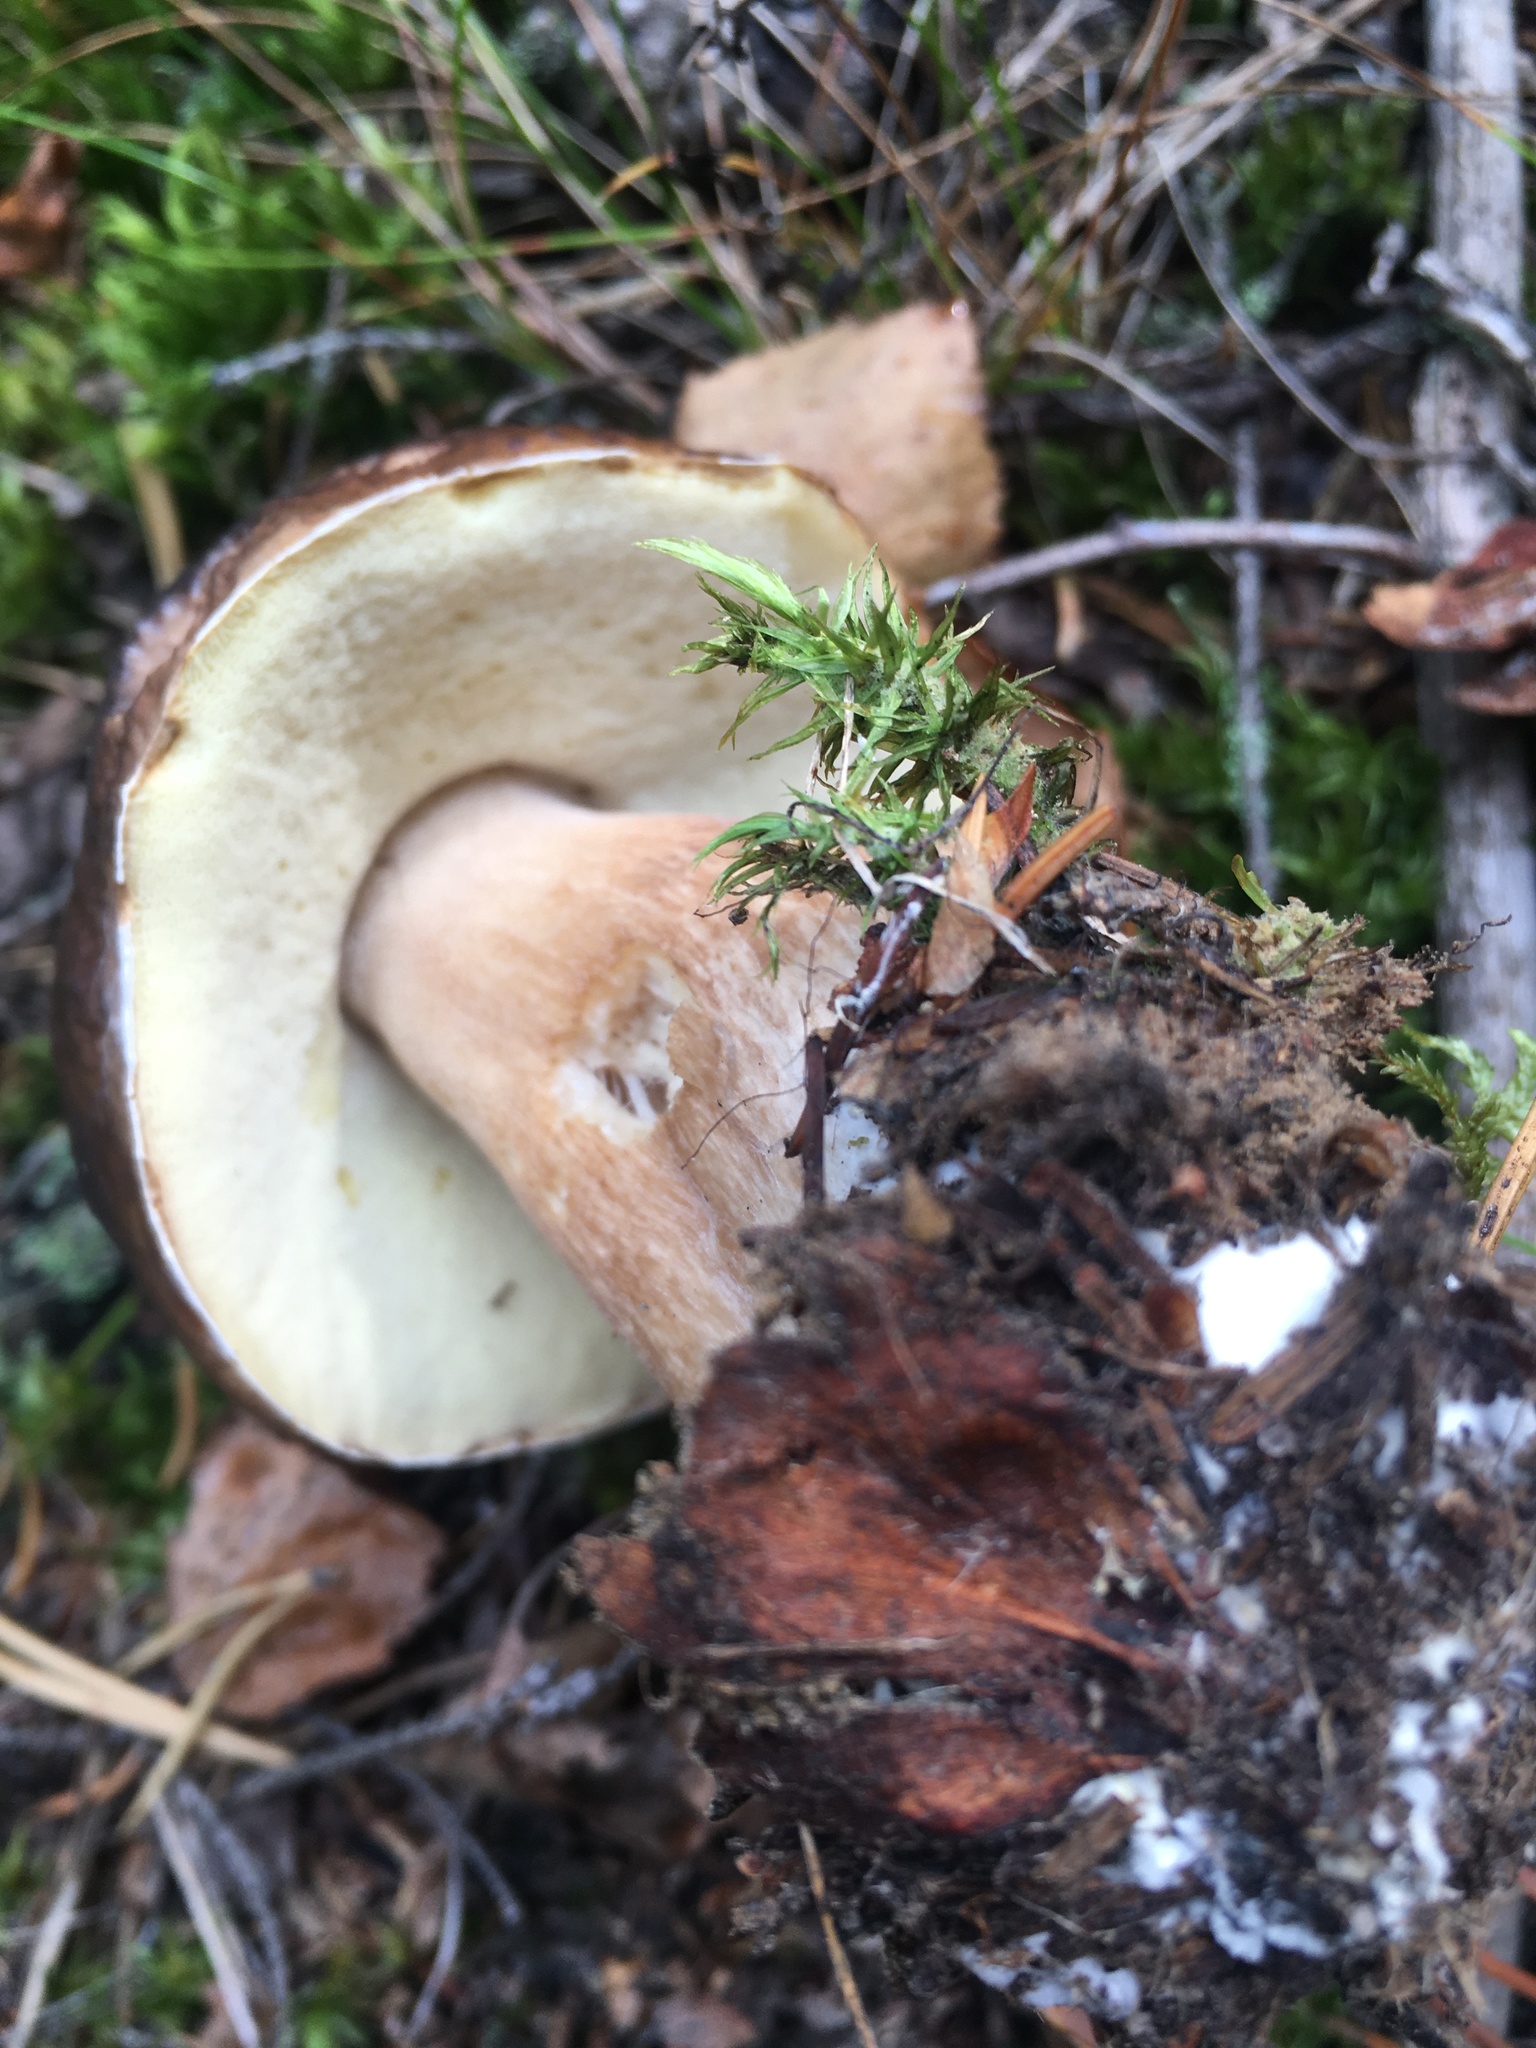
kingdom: Fungi
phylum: Basidiomycota
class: Agaricomycetes
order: Boletales
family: Boletaceae
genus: Boletus
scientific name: Boletus edulis
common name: Cep
